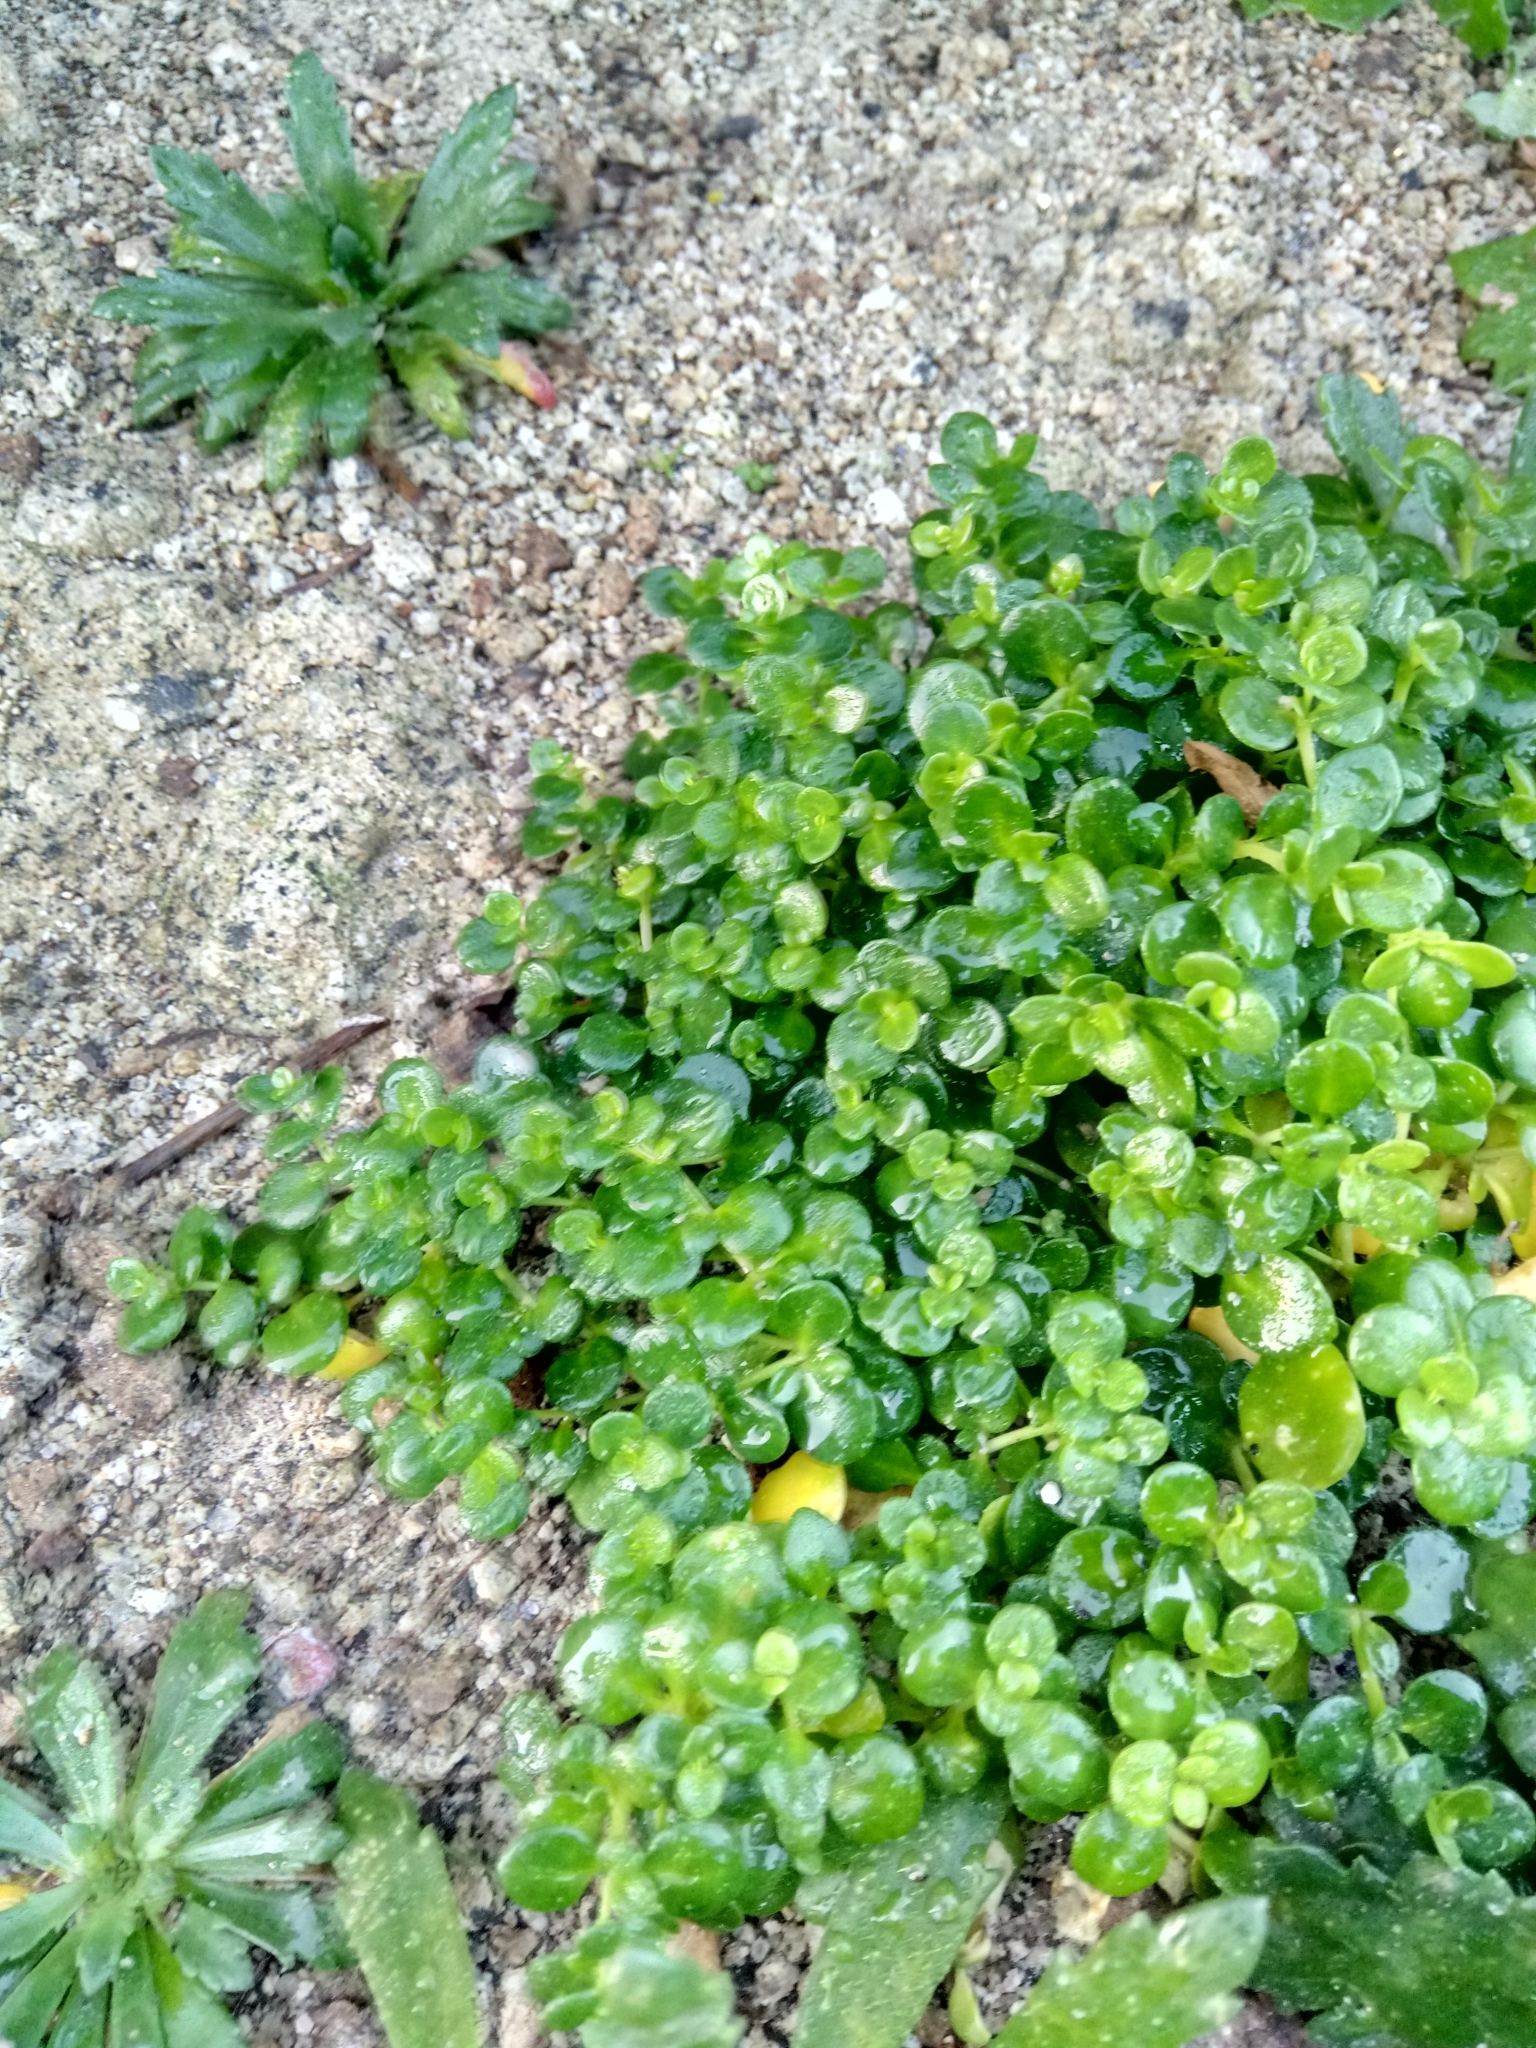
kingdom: Plantae
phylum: Tracheophyta
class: Magnoliopsida
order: Caryophyllales
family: Caryophyllaceae
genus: Polycarpon
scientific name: Polycarpon polycarpoides
